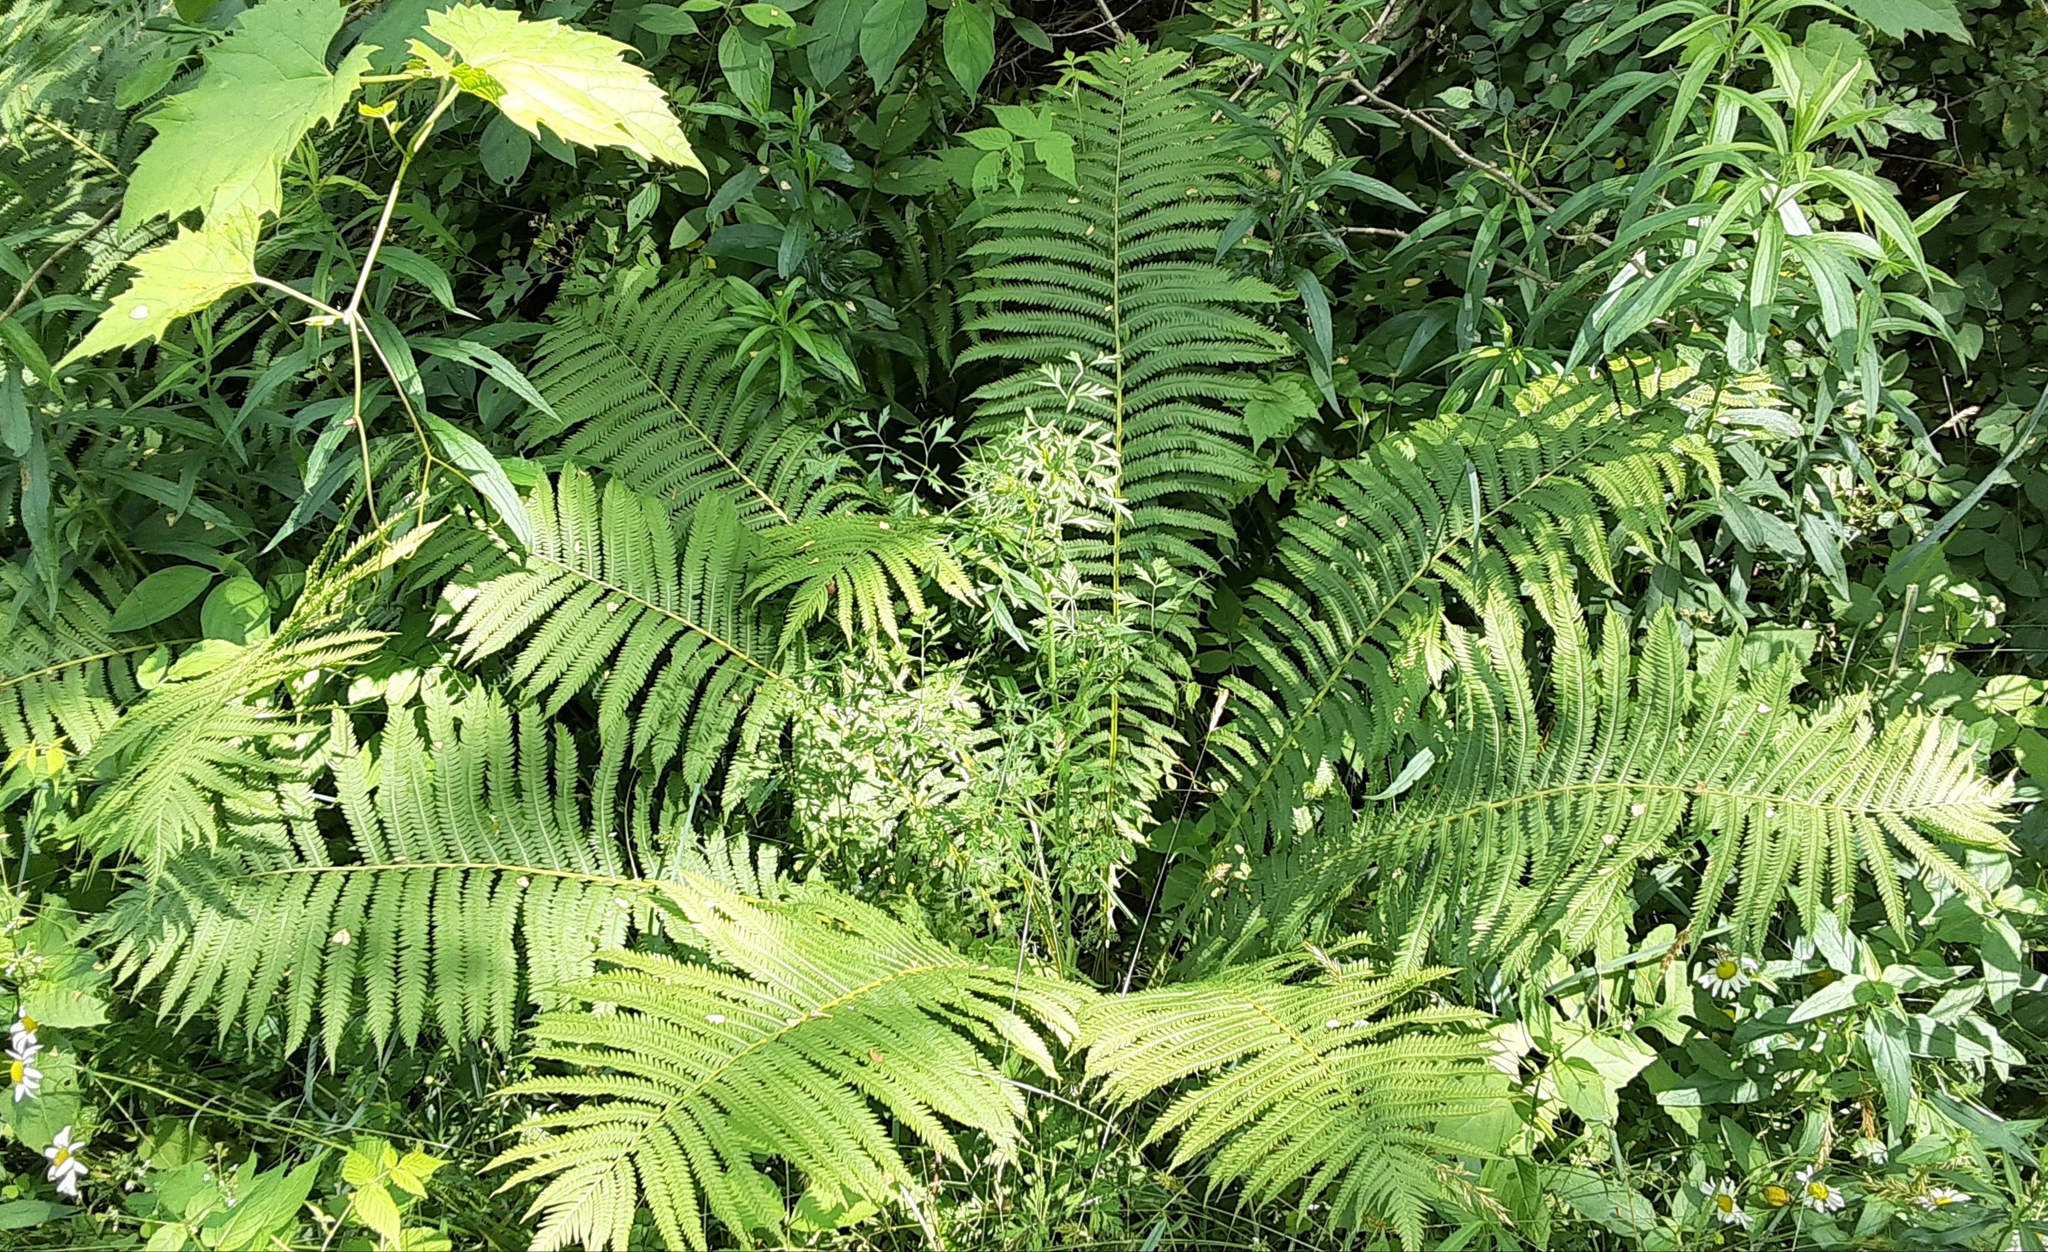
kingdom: Plantae
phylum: Tracheophyta
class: Polypodiopsida
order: Polypodiales
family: Onocleaceae
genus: Matteuccia
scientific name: Matteuccia struthiopteris
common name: Ostrich fern
